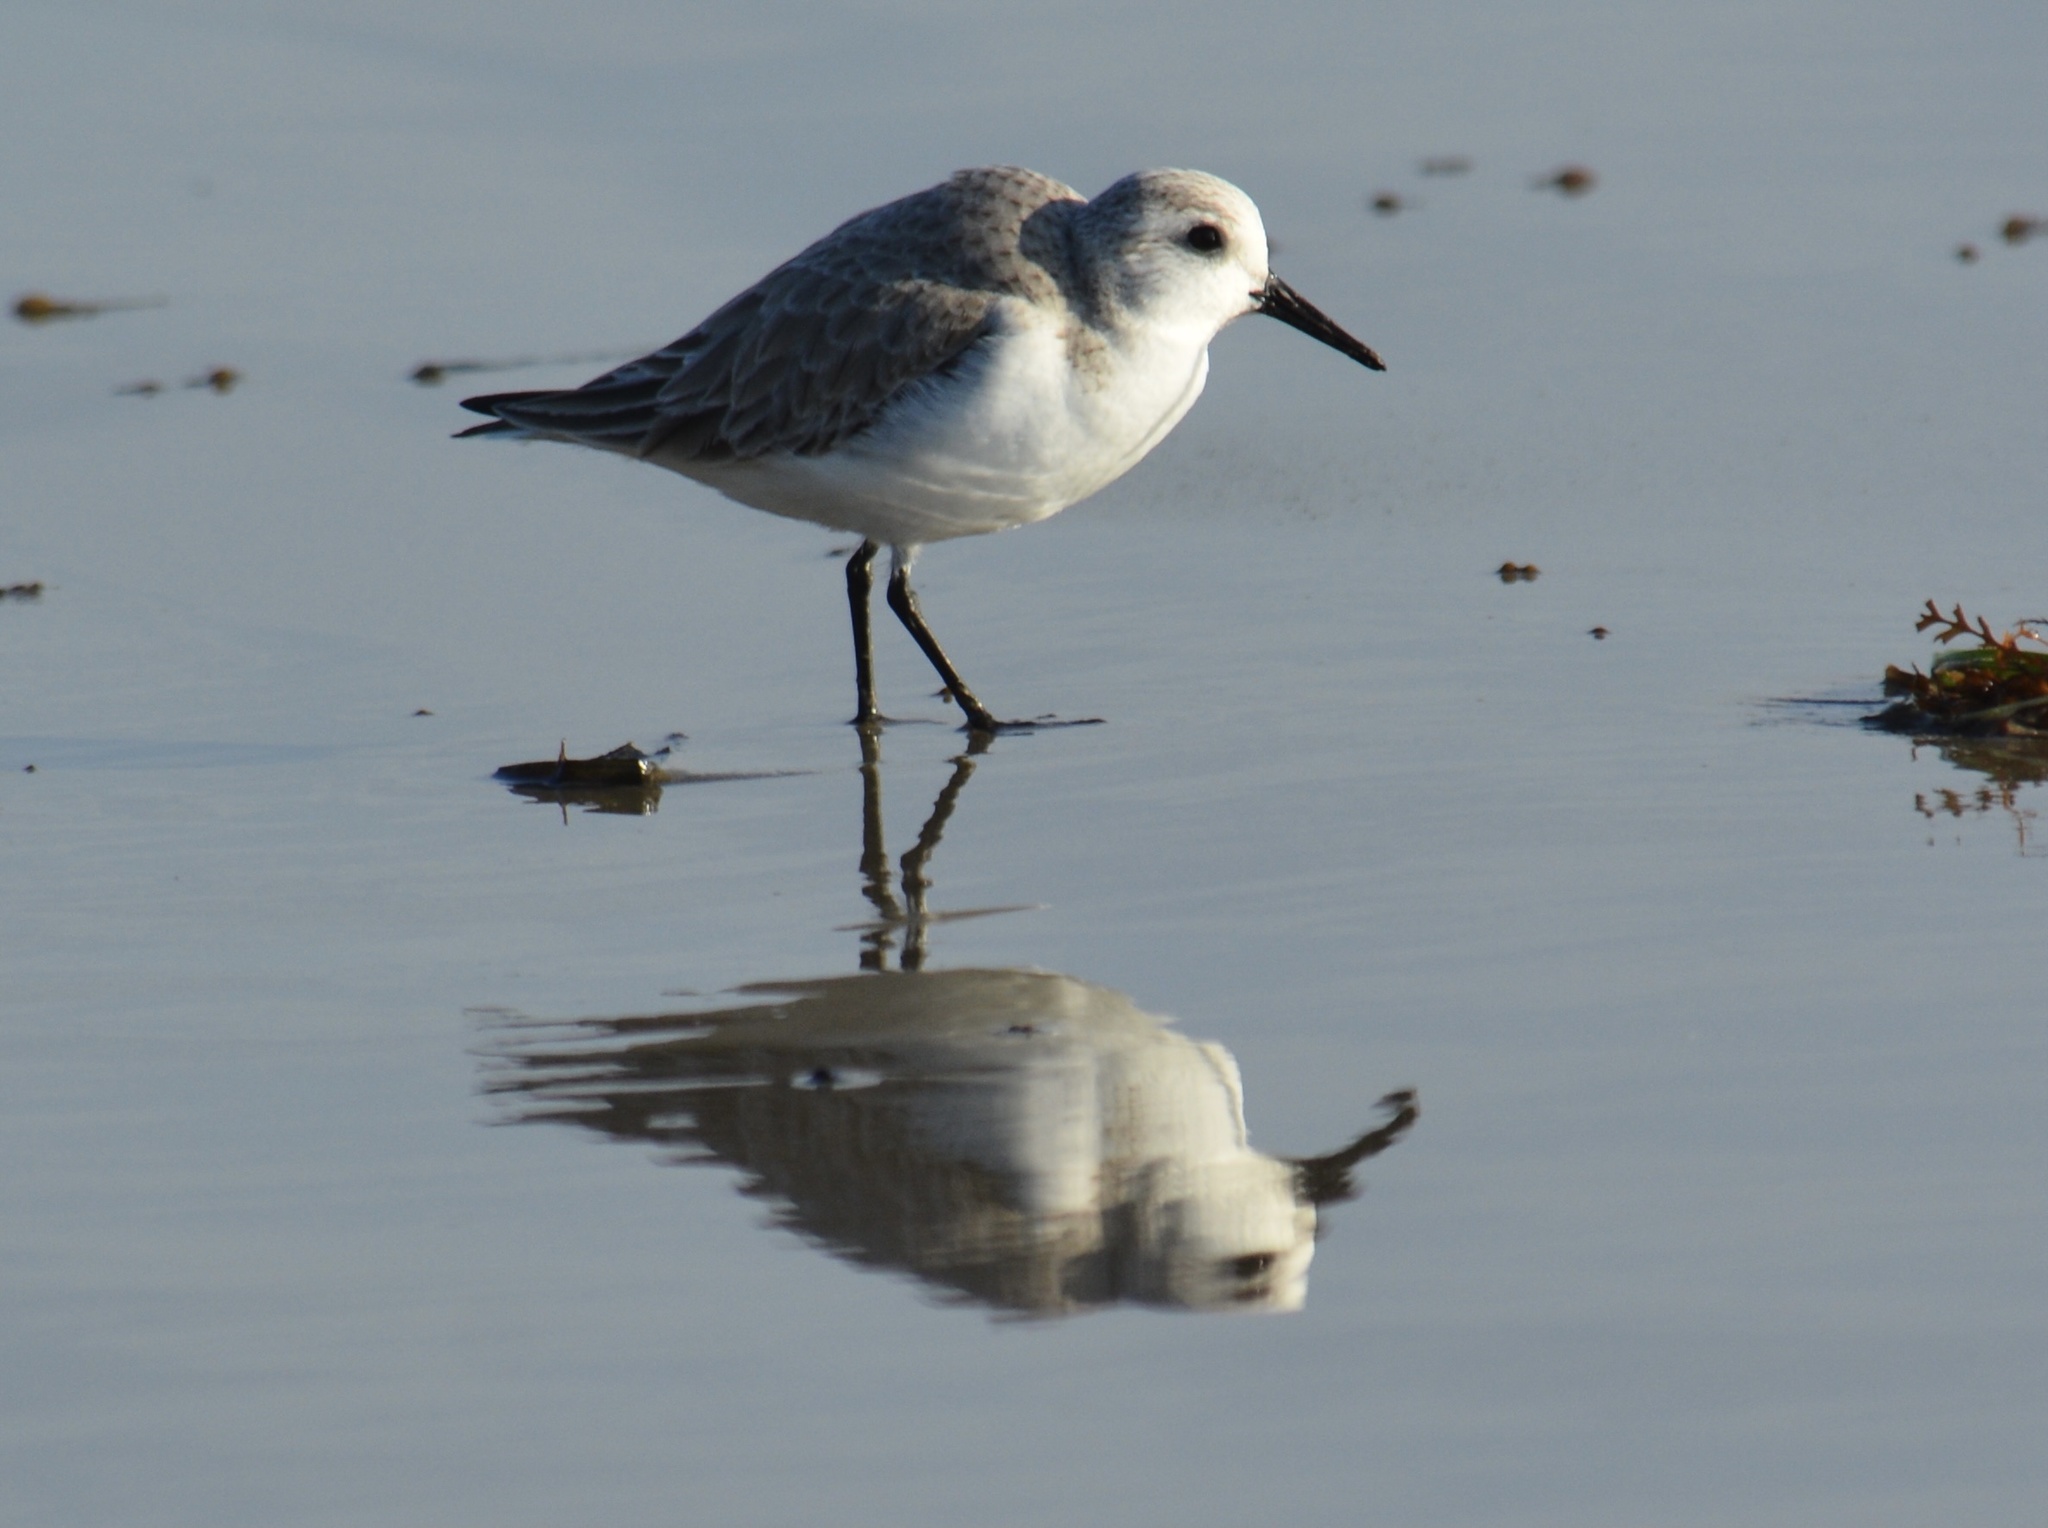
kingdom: Animalia
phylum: Chordata
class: Aves
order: Charadriiformes
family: Scolopacidae
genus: Calidris
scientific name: Calidris alba
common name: Sanderling
